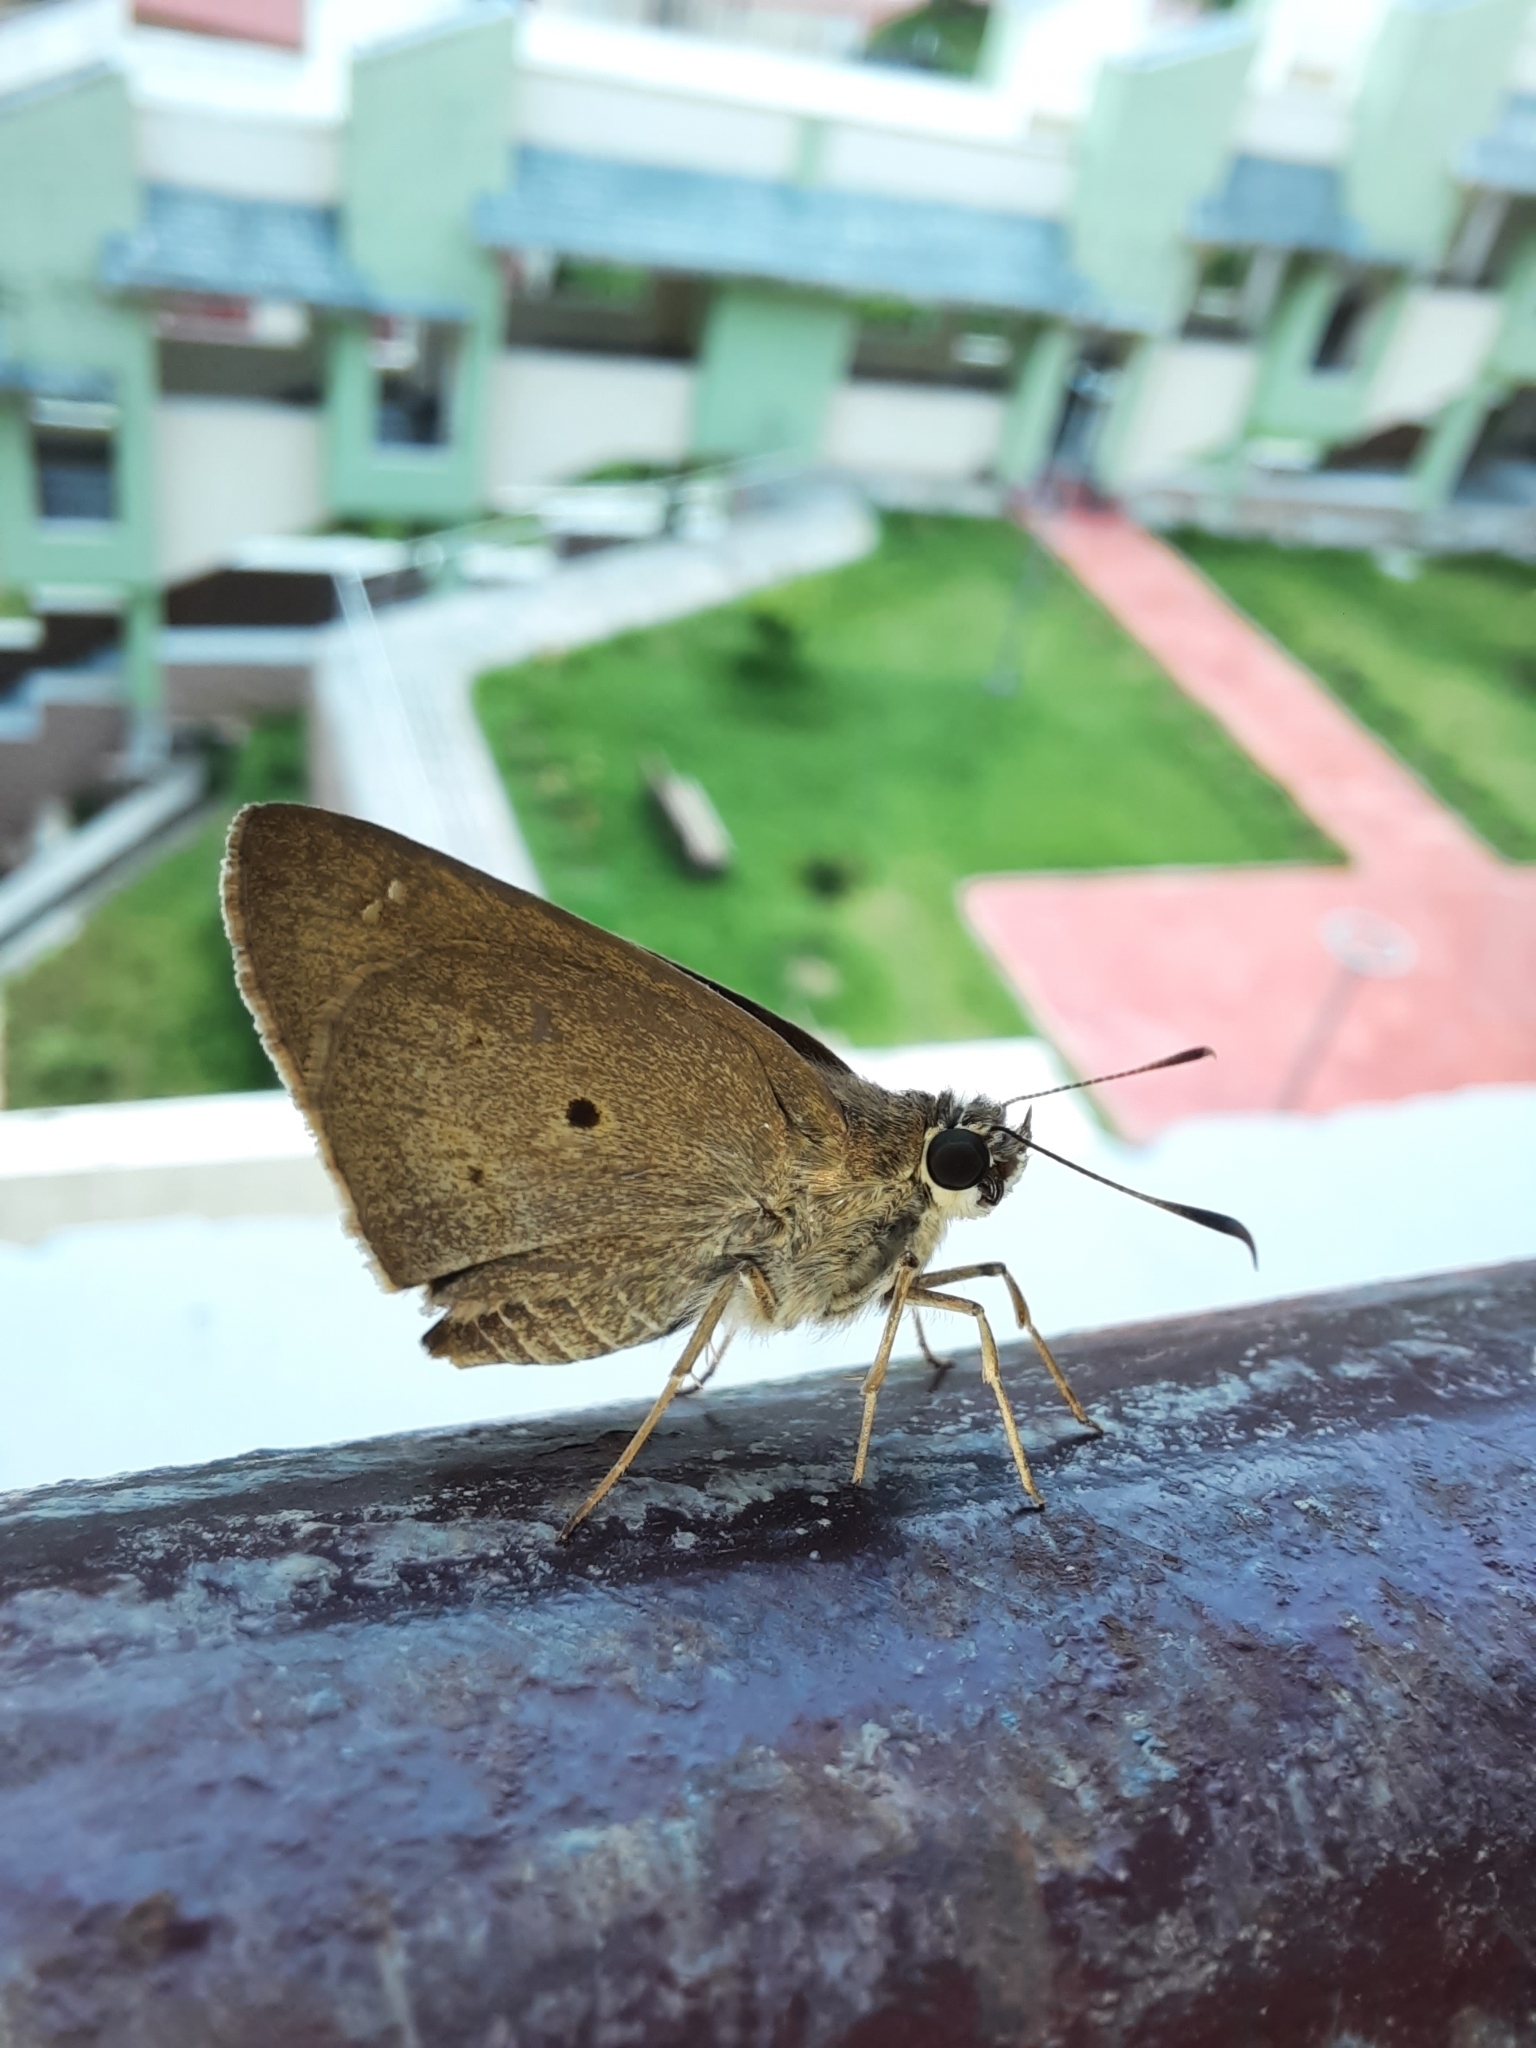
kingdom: Animalia
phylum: Arthropoda
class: Insecta
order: Lepidoptera
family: Hesperiidae
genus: Suastus
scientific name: Suastus gremius
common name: Indian palm bob
